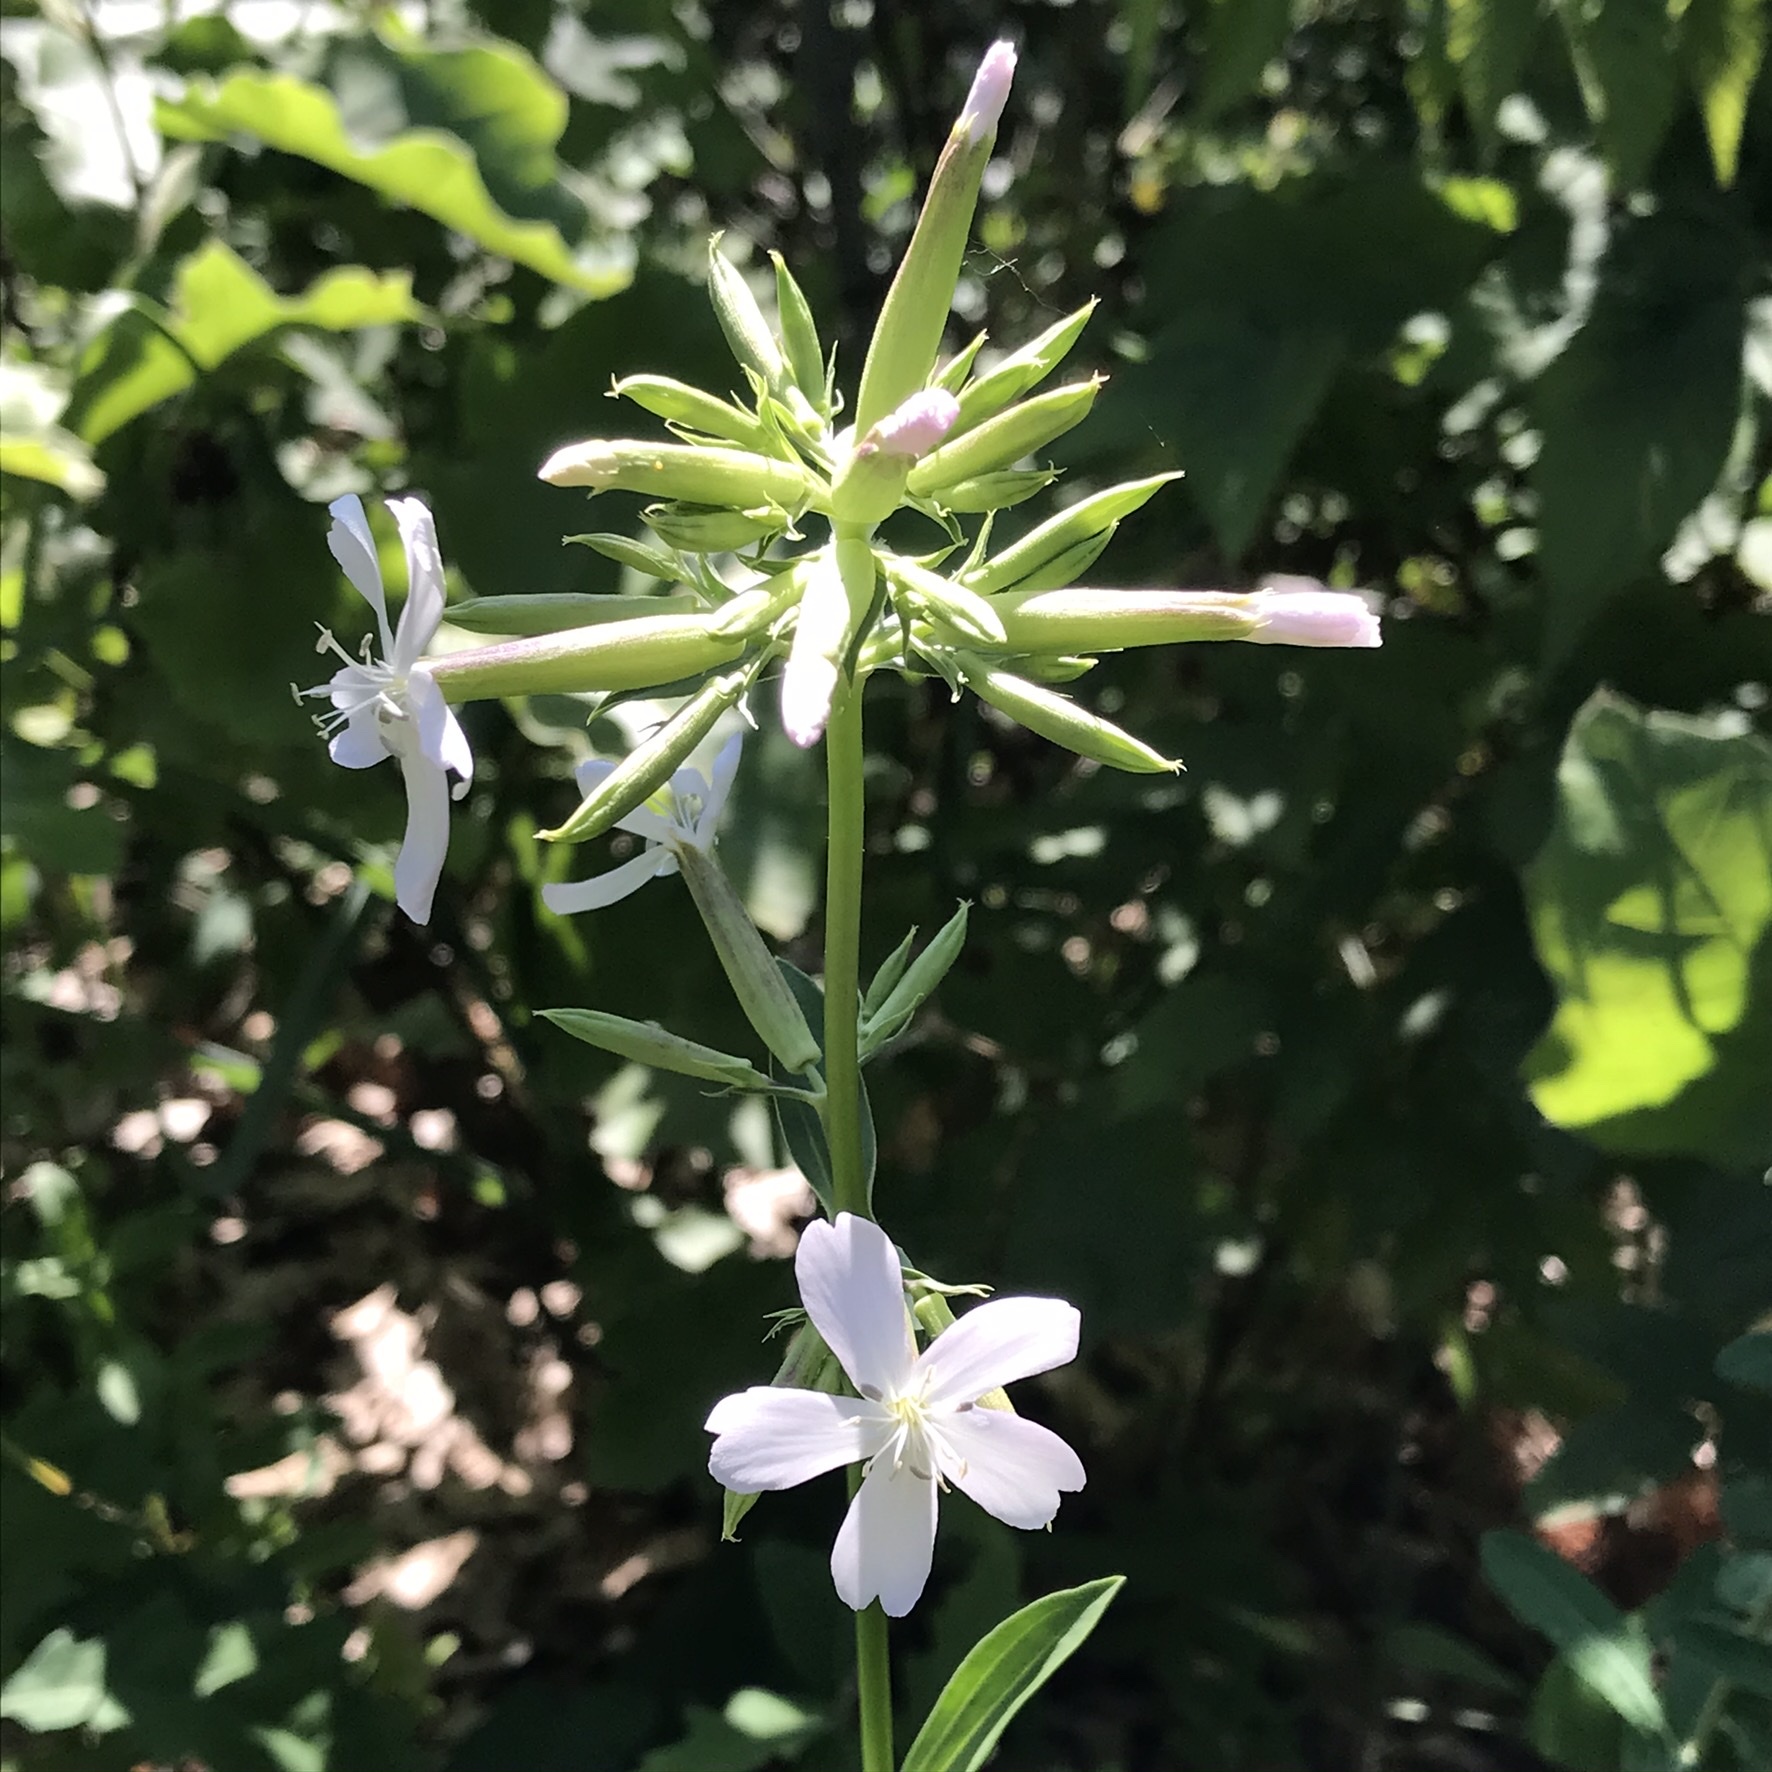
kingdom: Plantae
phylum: Tracheophyta
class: Magnoliopsida
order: Caryophyllales
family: Caryophyllaceae
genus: Saponaria
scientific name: Saponaria officinalis
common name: Soapwort
